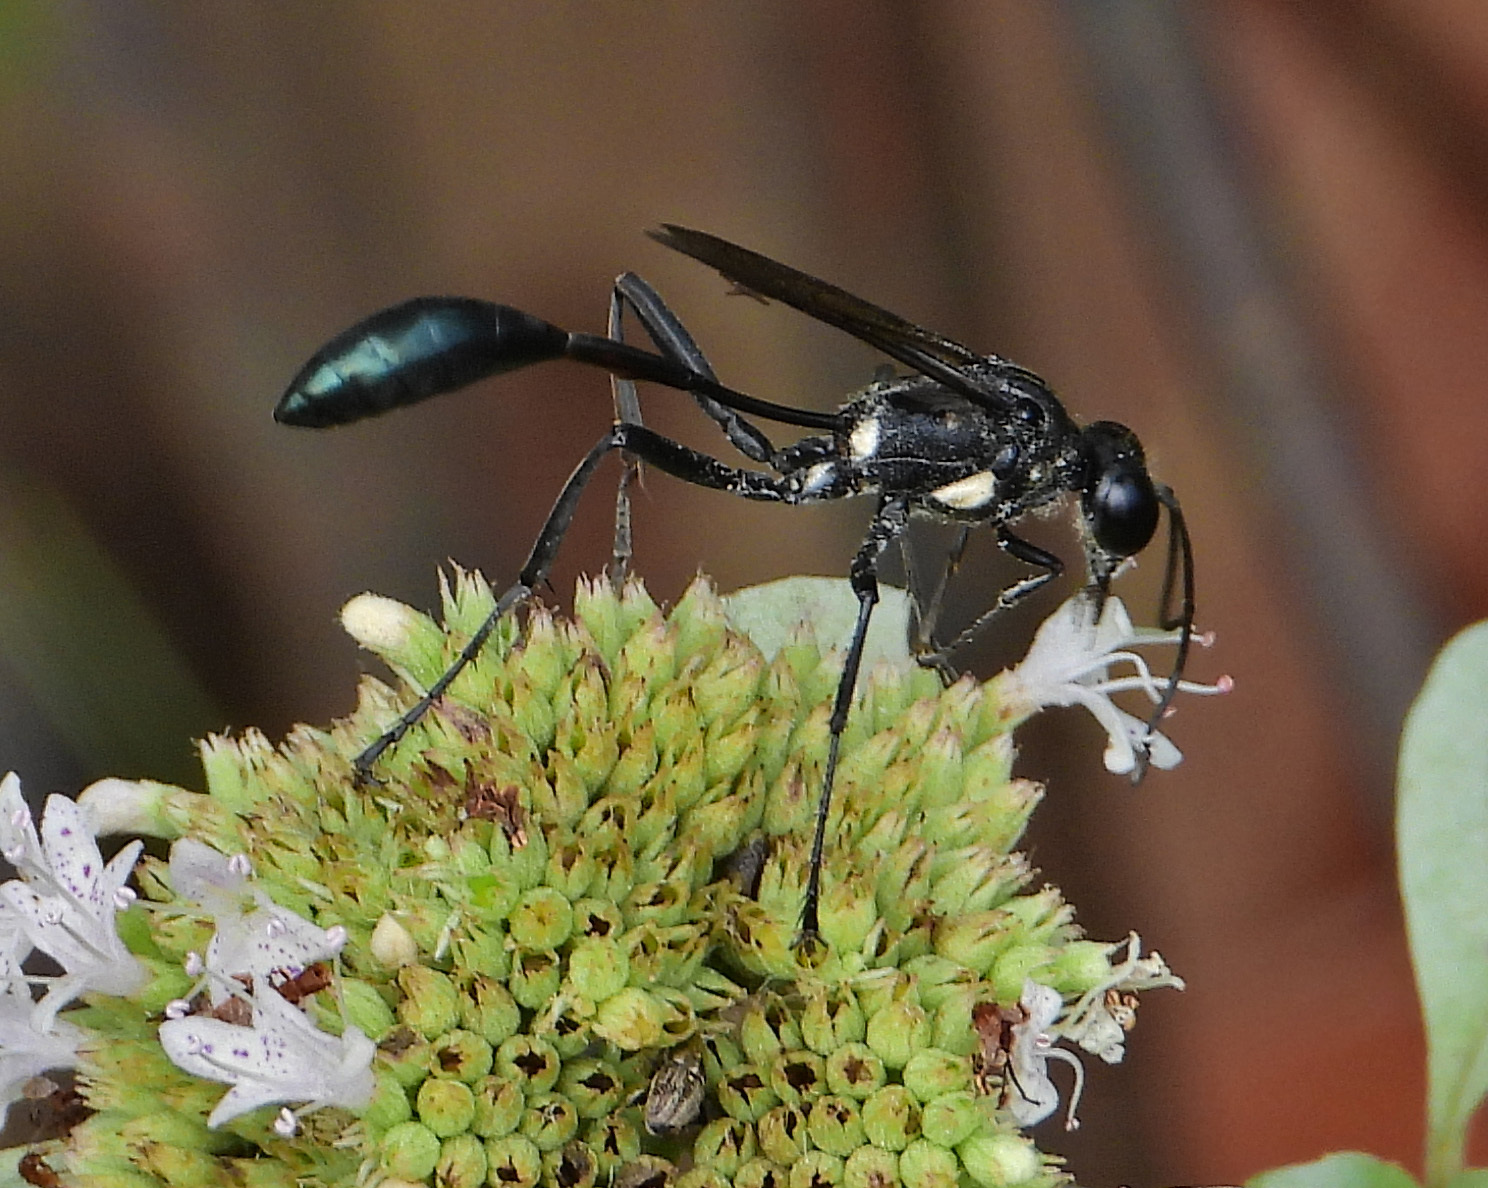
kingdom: Animalia
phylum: Arthropoda
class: Insecta
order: Hymenoptera
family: Sphecidae
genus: Eremnophila
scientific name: Eremnophila aureonotata
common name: Gold-marked thread-waisted wasp
